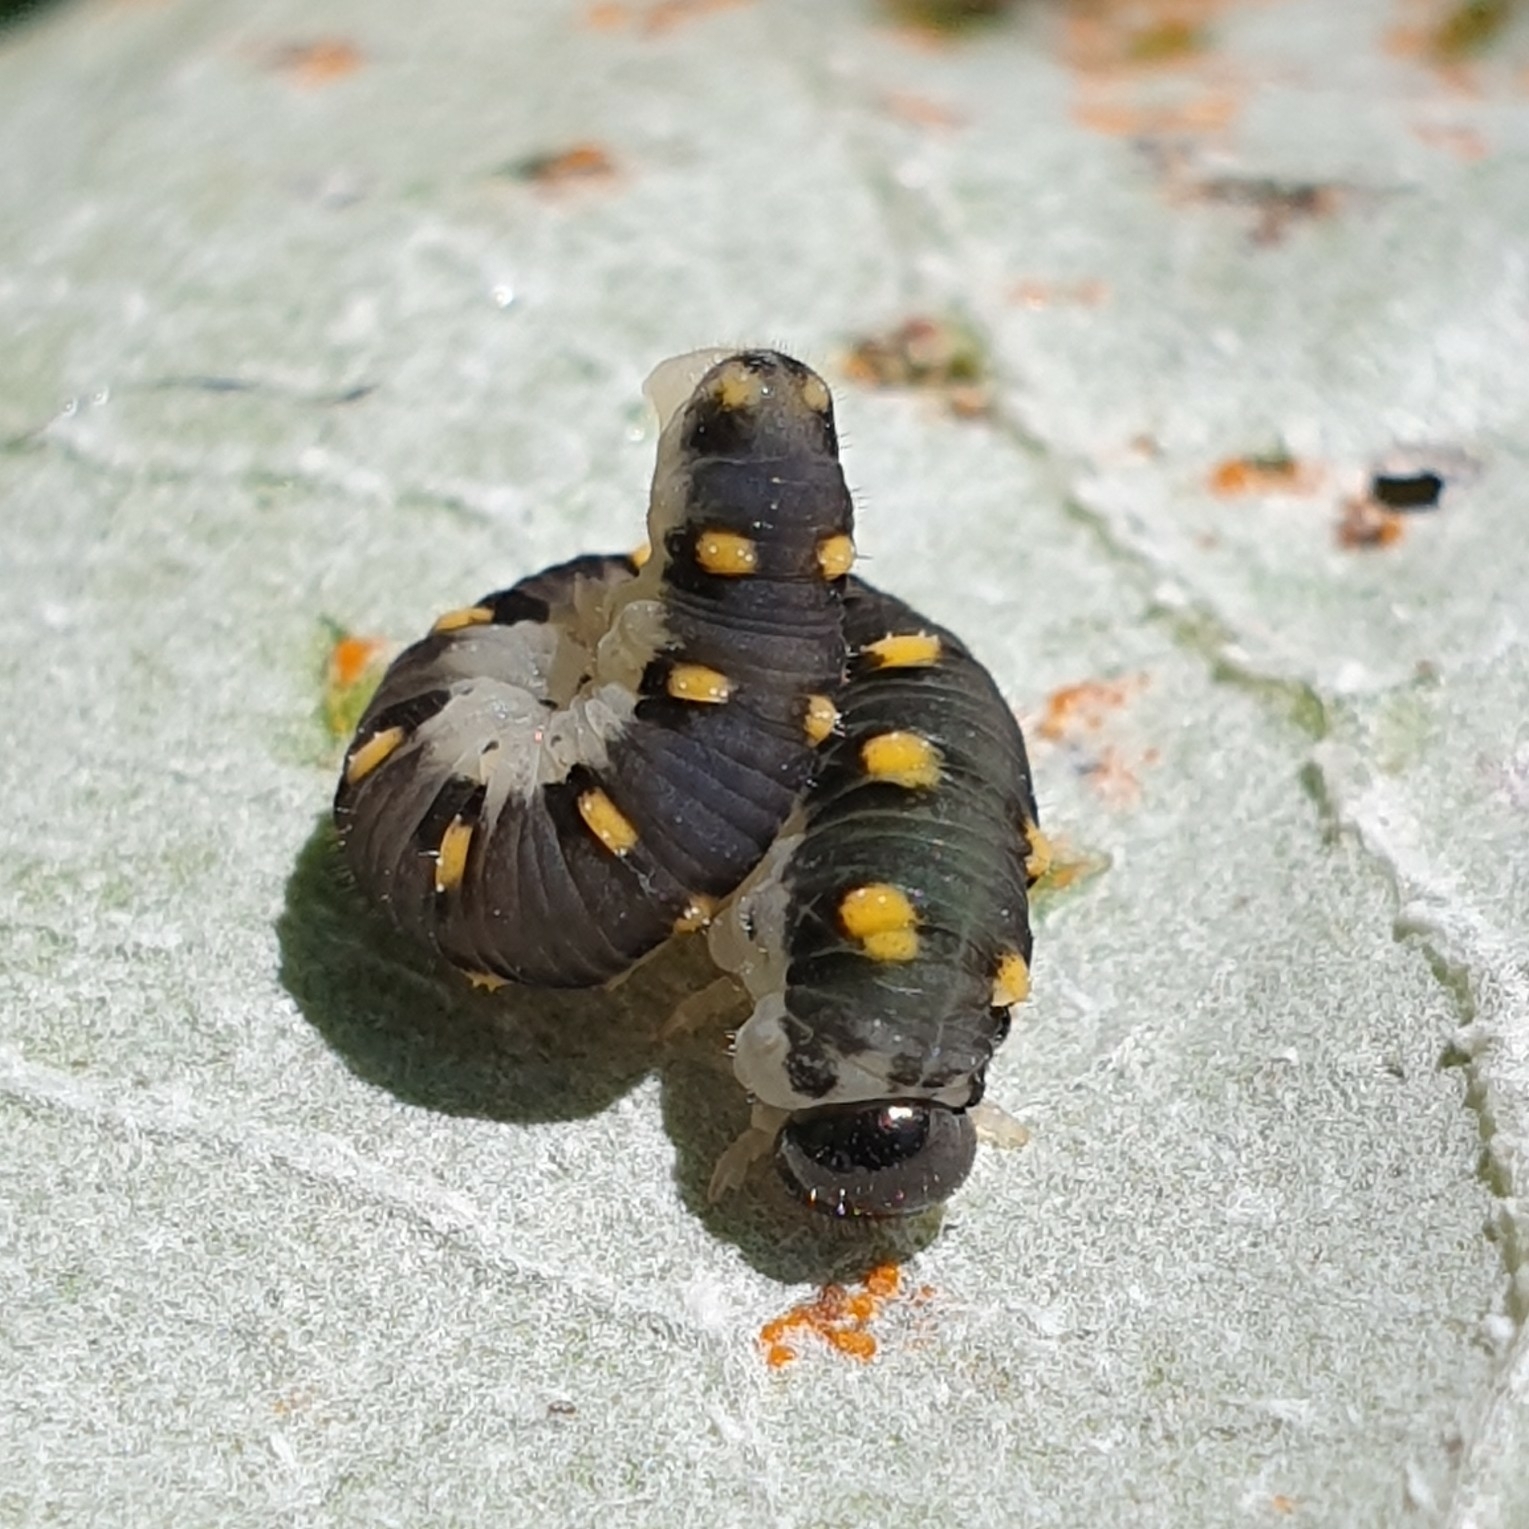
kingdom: Animalia
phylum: Arthropoda
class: Insecta
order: Hymenoptera
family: Tenthredinidae
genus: Tenthredo
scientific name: Tenthredo mandibularis
